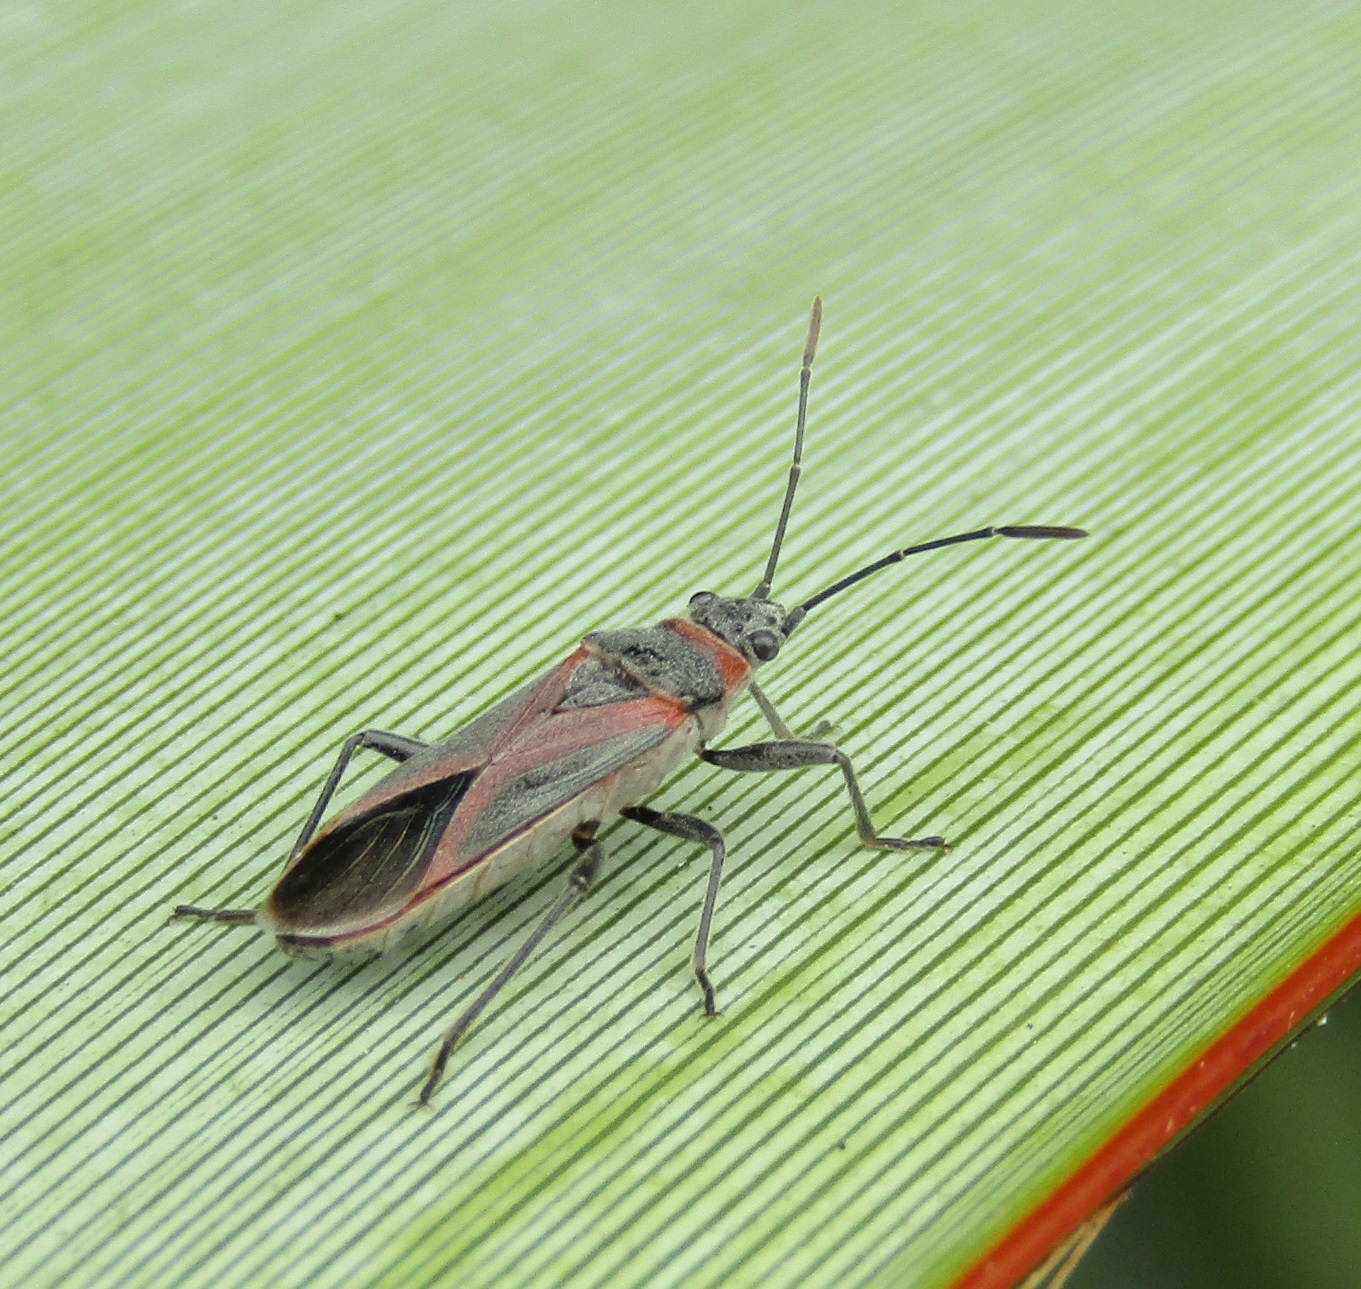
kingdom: Animalia
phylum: Arthropoda
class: Insecta
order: Hemiptera
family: Lygaeidae
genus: Arocatus
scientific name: Arocatus rusticus
